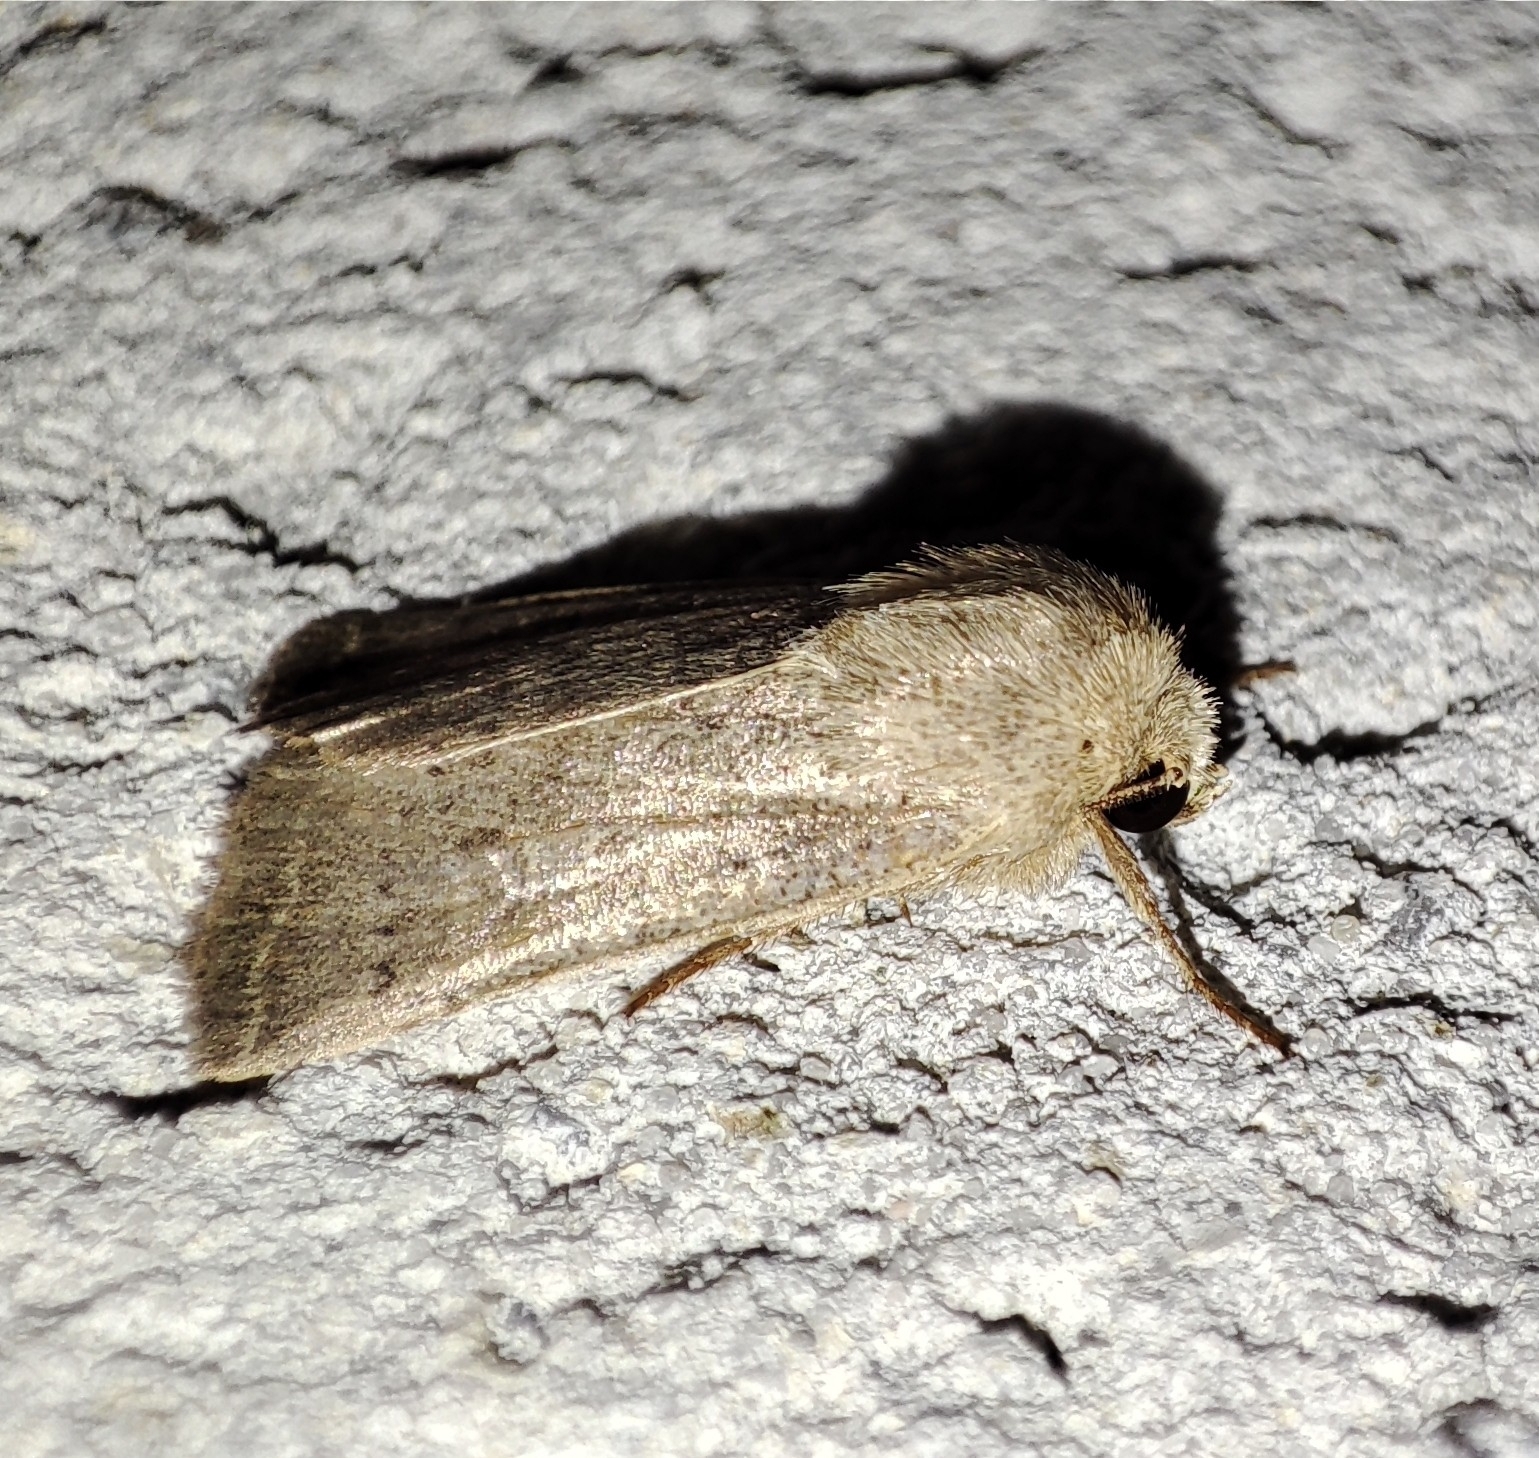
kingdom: Animalia
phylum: Arthropoda
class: Insecta
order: Lepidoptera
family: Noctuidae
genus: Hoplodrina
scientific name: Hoplodrina ambigua
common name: Vine's rustic
